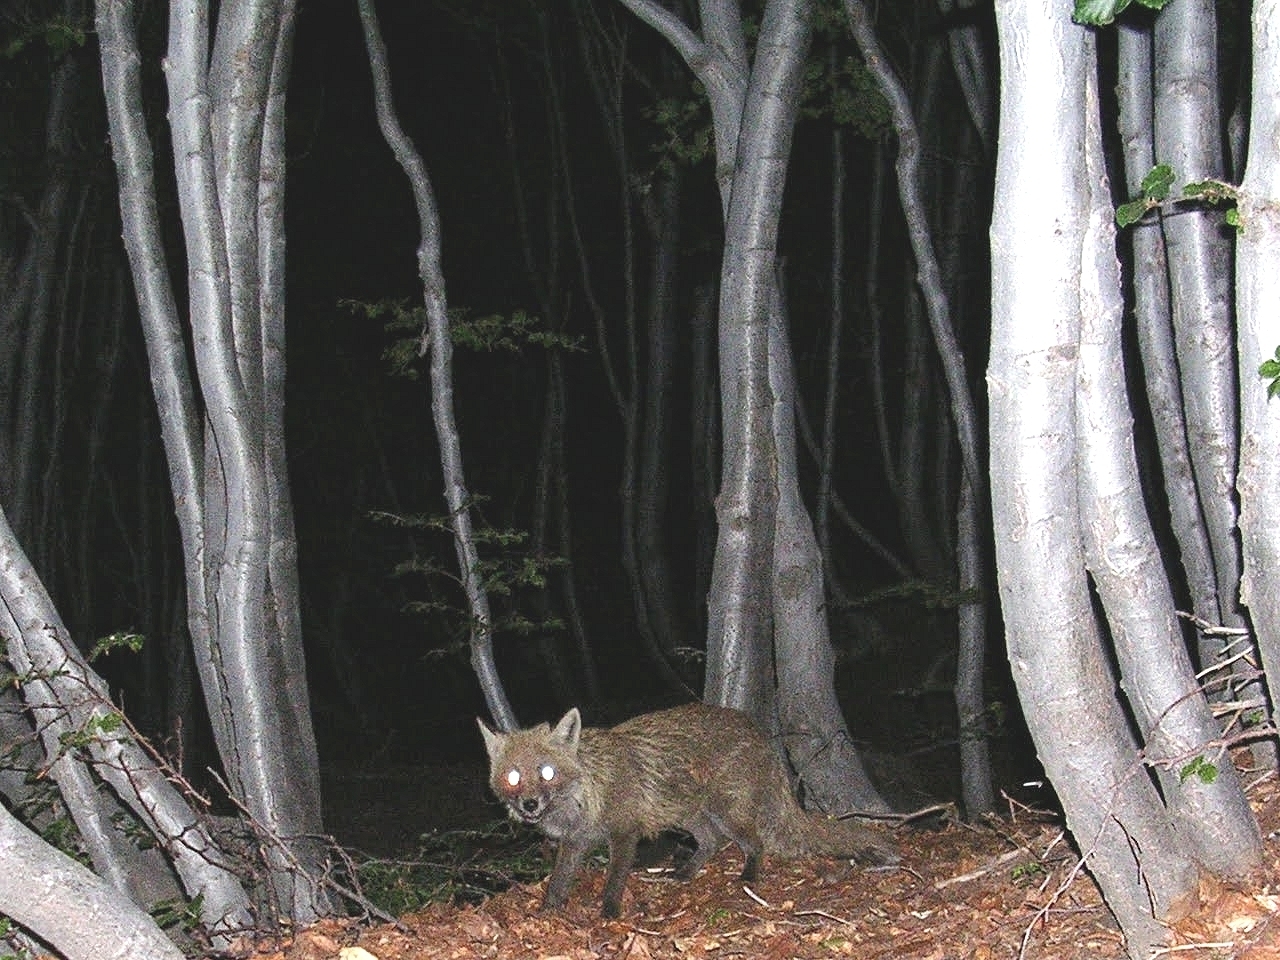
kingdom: Animalia
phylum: Chordata
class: Mammalia
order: Carnivora
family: Canidae
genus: Vulpes
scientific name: Vulpes vulpes
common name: Red fox
